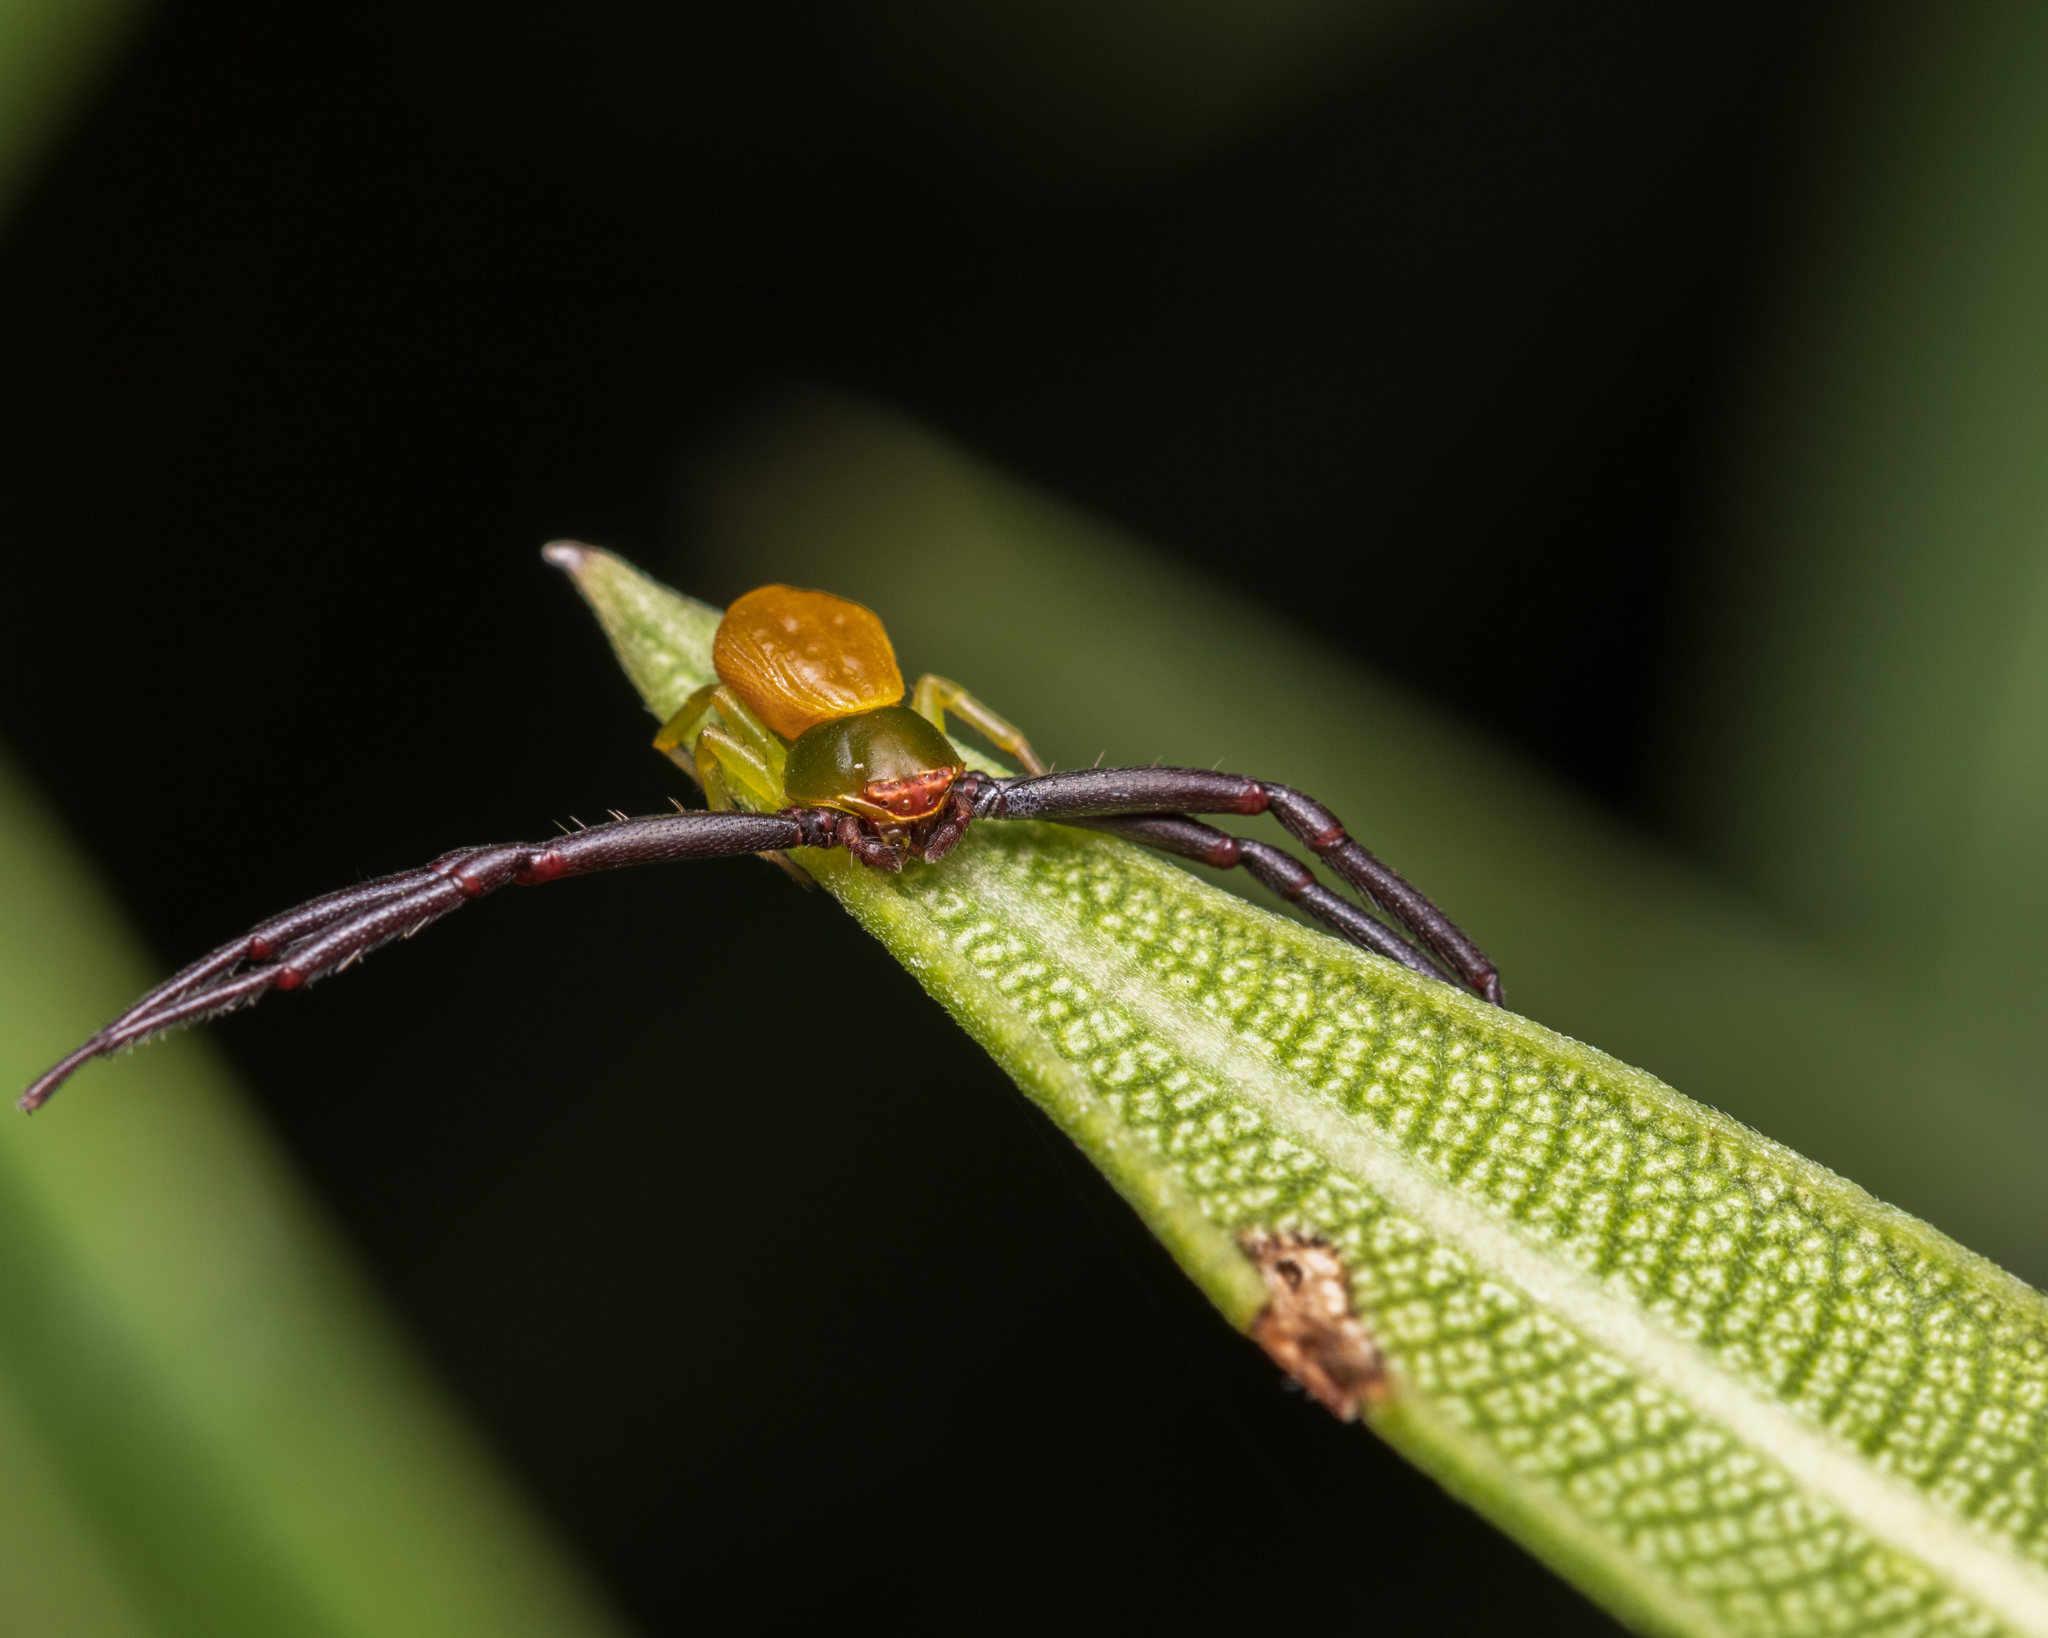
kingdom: Animalia
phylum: Arthropoda
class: Arachnida
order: Araneae
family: Thomisidae
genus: Misumenoides
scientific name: Misumenoides formosipes
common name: White-banded crab spider
